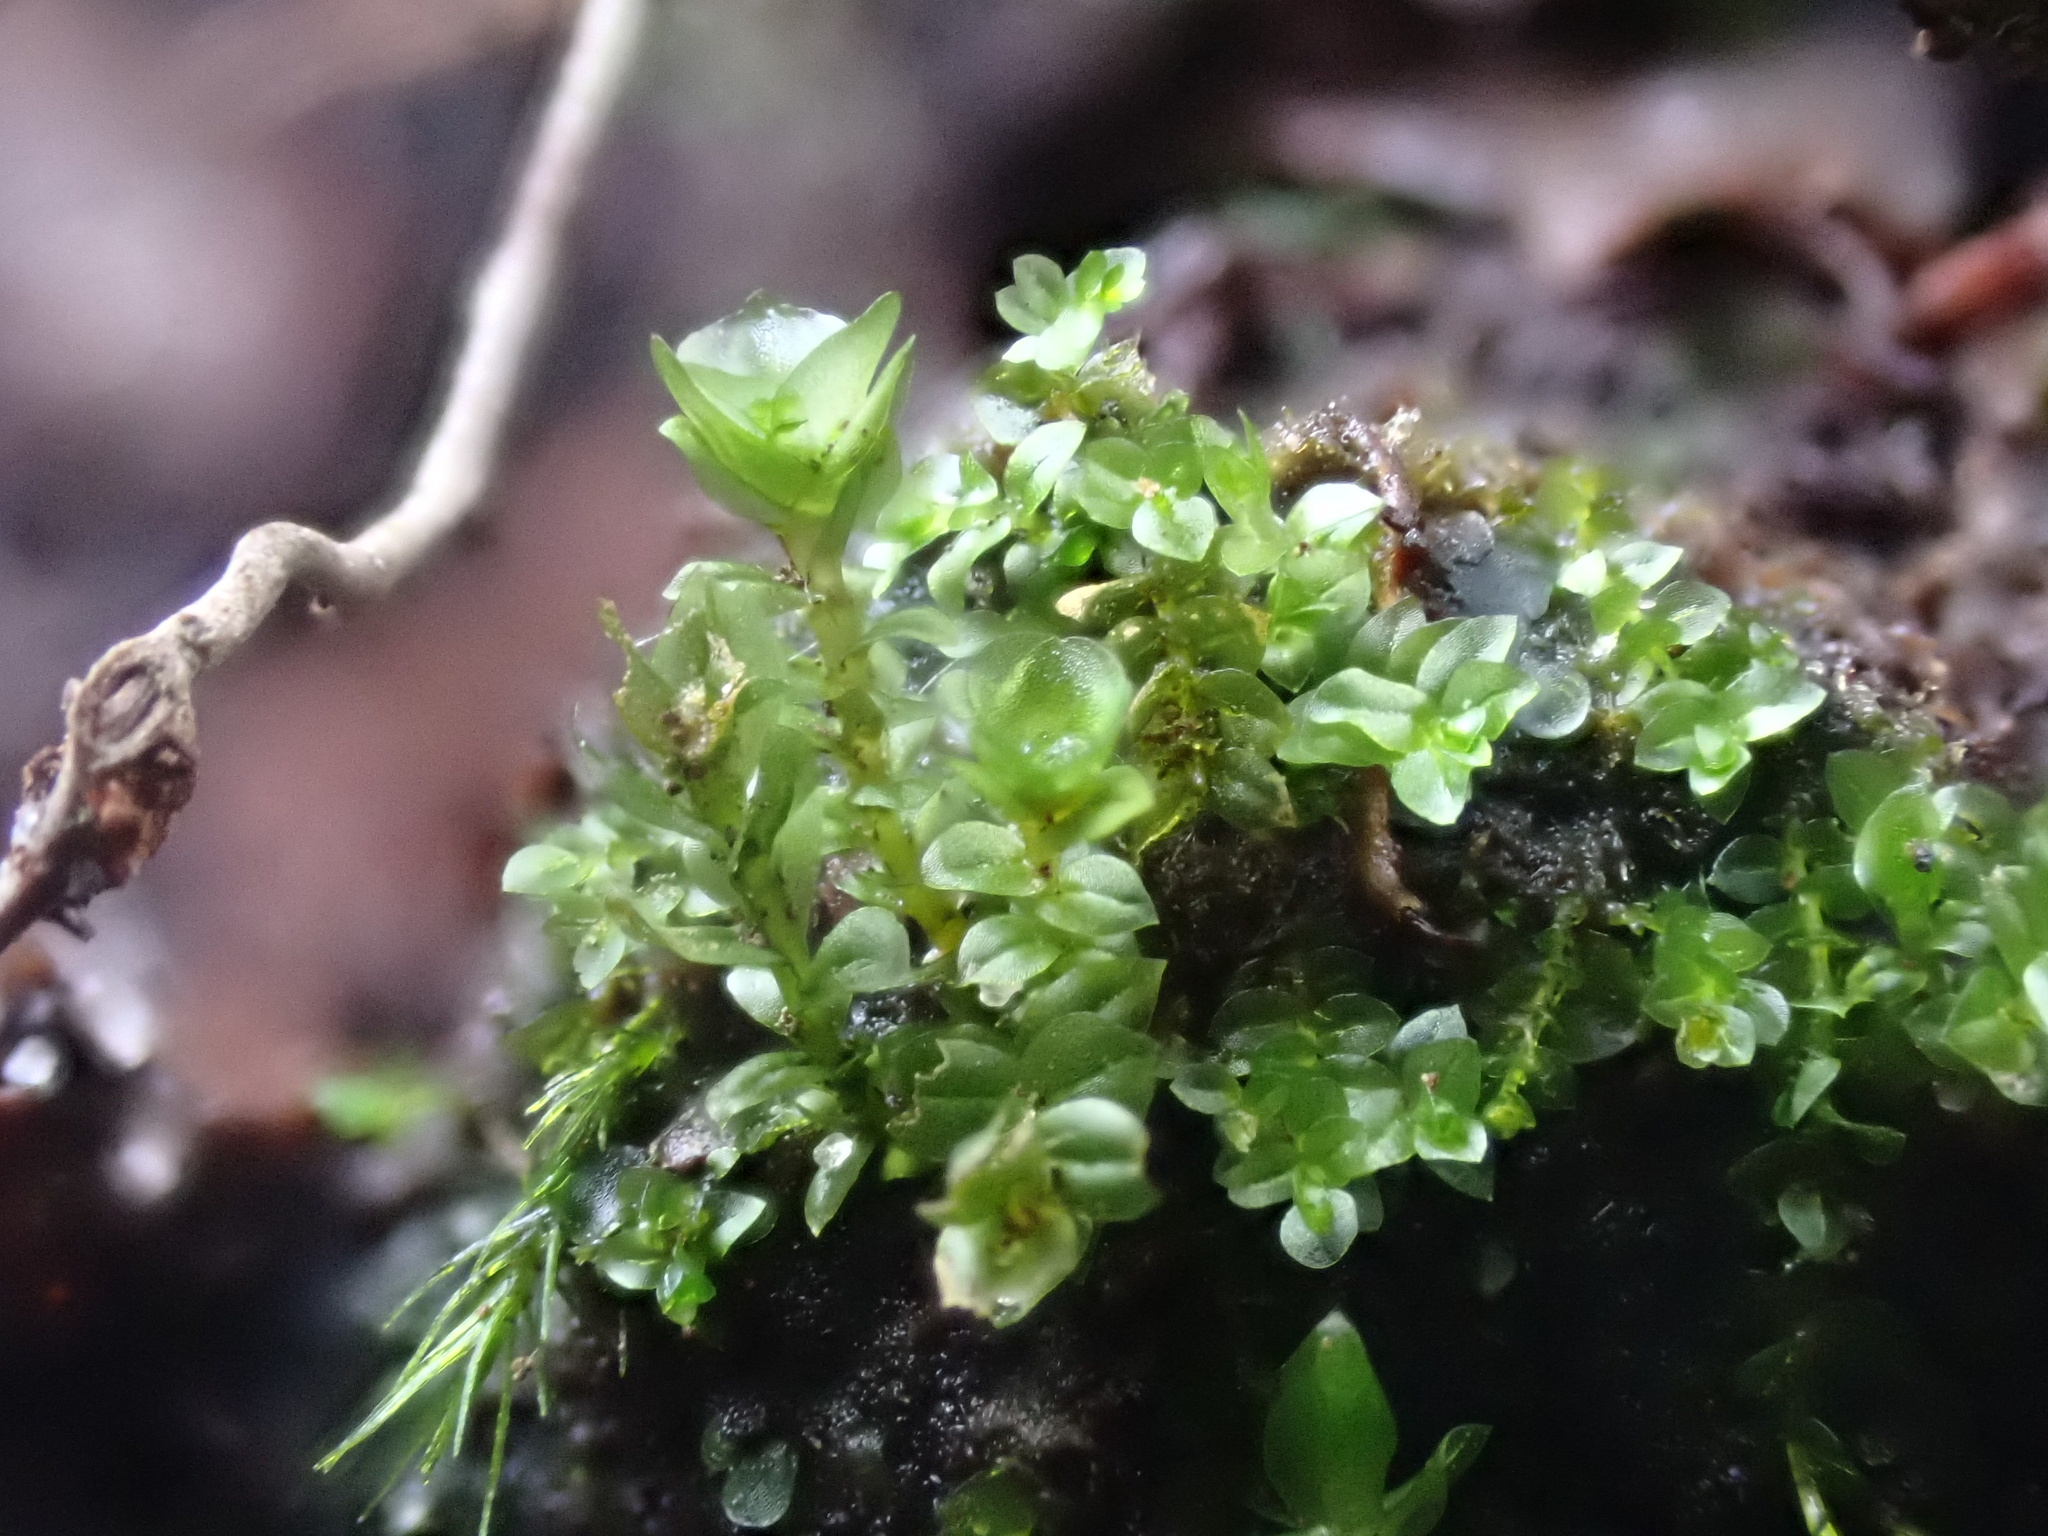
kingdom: Plantae
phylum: Bryophyta
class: Polytrichopsida
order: Tetraphidales
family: Tetraphidaceae
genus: Tetraphis
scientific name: Tetraphis pellucida
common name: Common four-toothed moss
